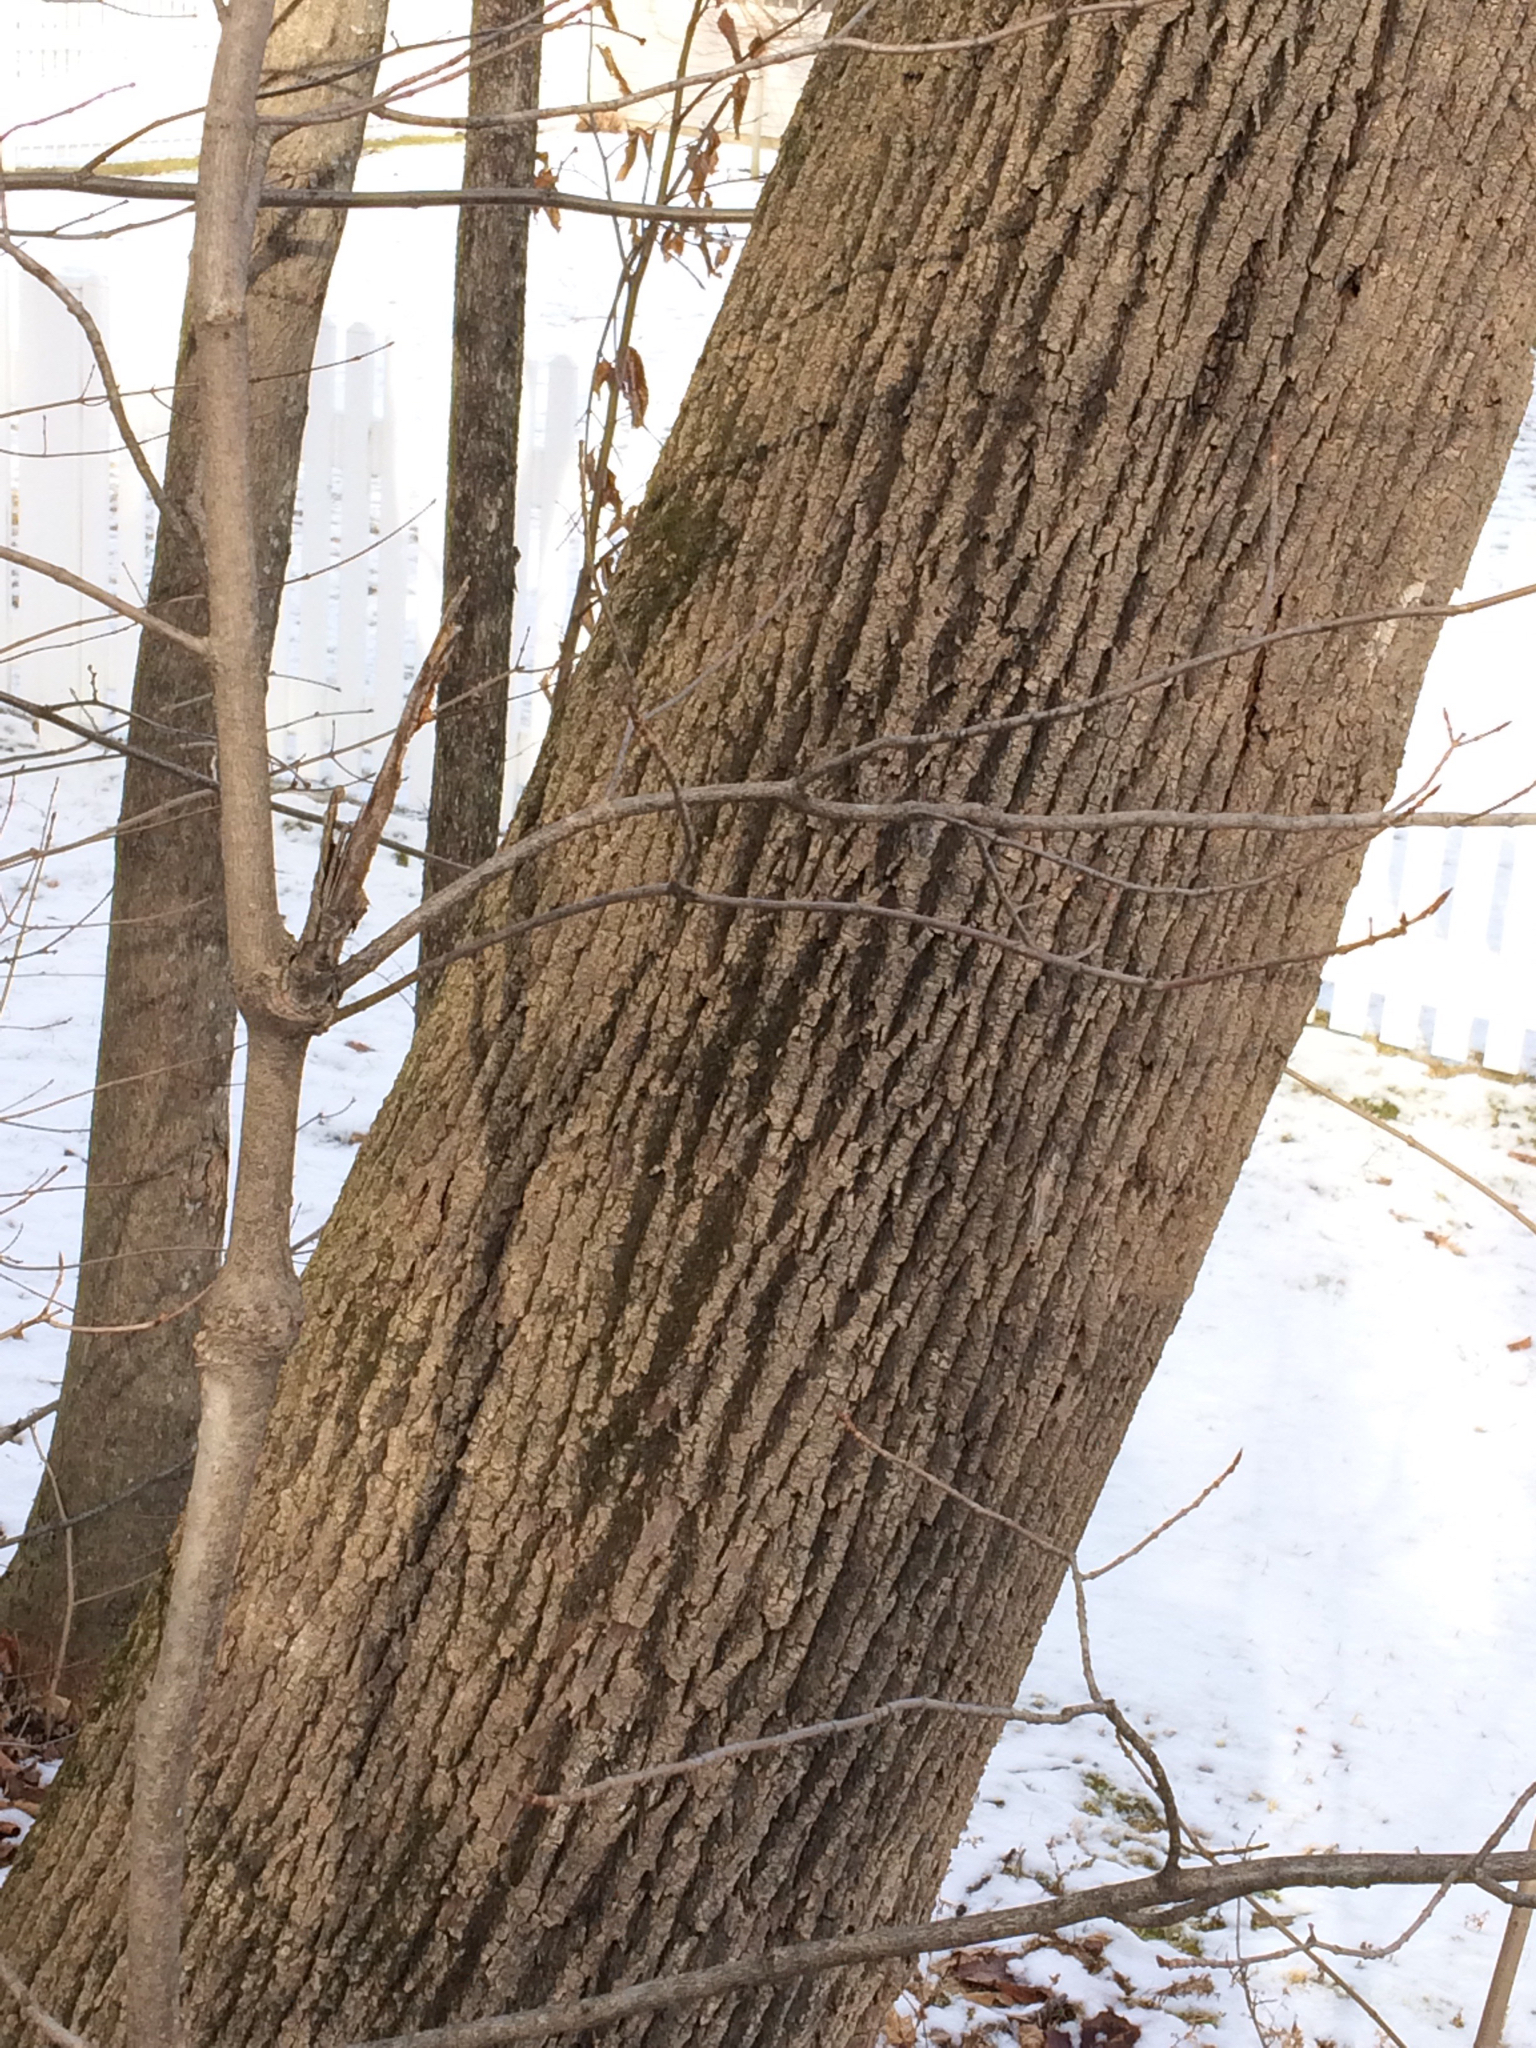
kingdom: Plantae
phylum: Tracheophyta
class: Magnoliopsida
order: Lamiales
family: Oleaceae
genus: Fraxinus
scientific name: Fraxinus americana
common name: White ash
